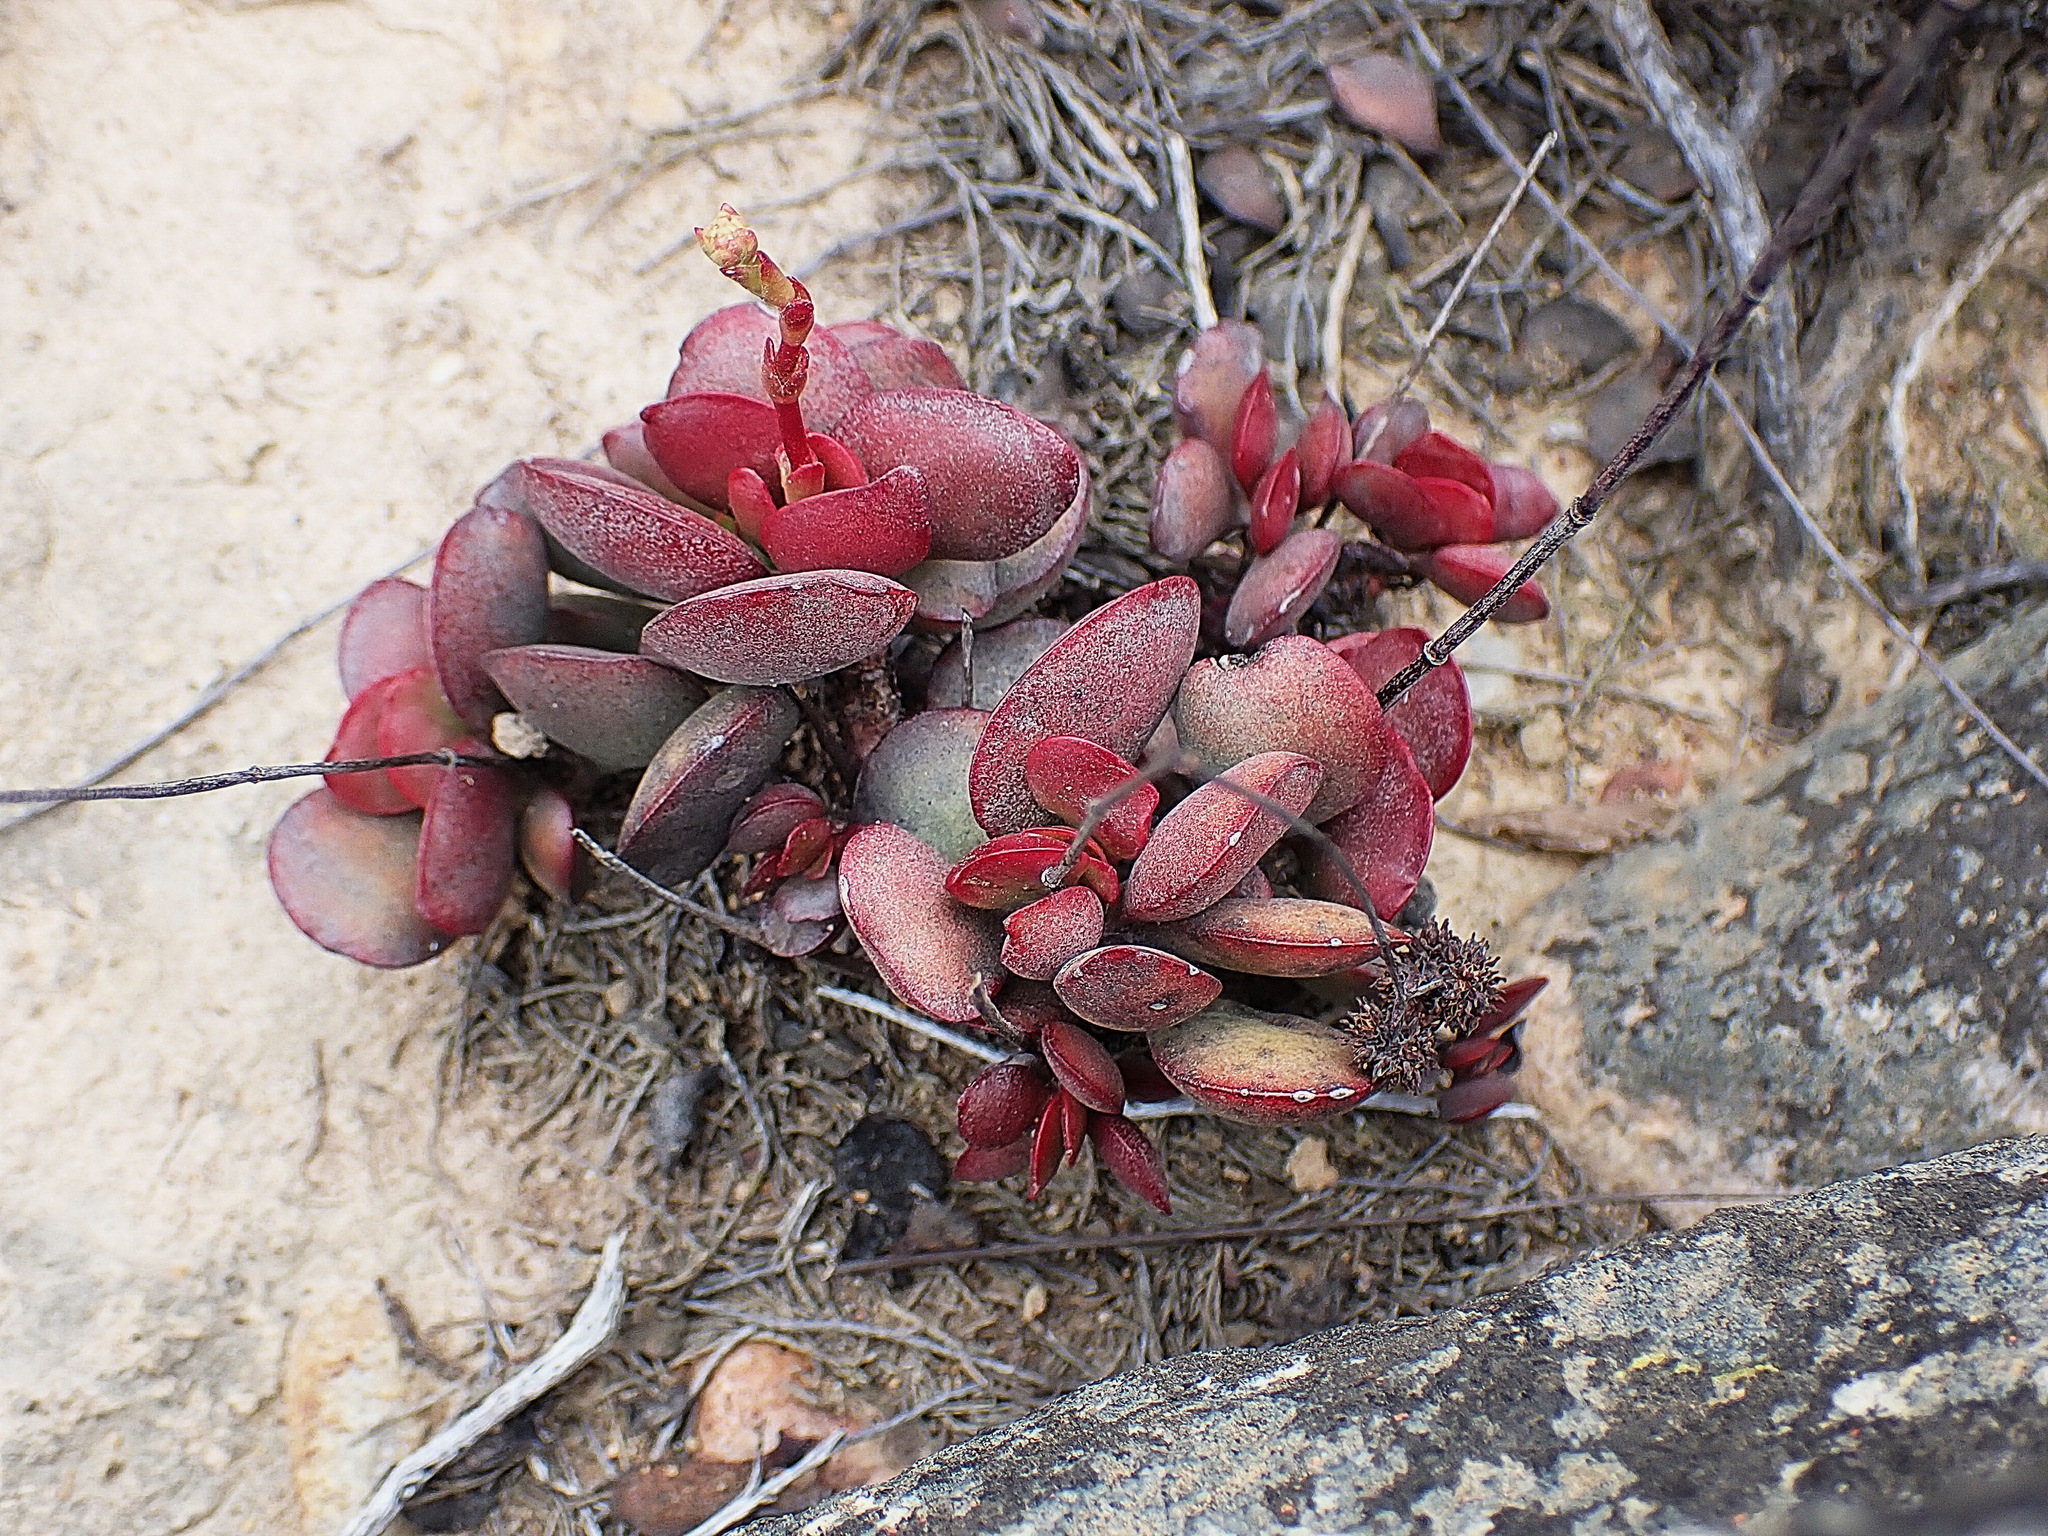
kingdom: Plantae
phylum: Tracheophyta
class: Magnoliopsida
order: Saxifragales
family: Crassulaceae
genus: Crassula
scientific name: Crassula atropurpurea
